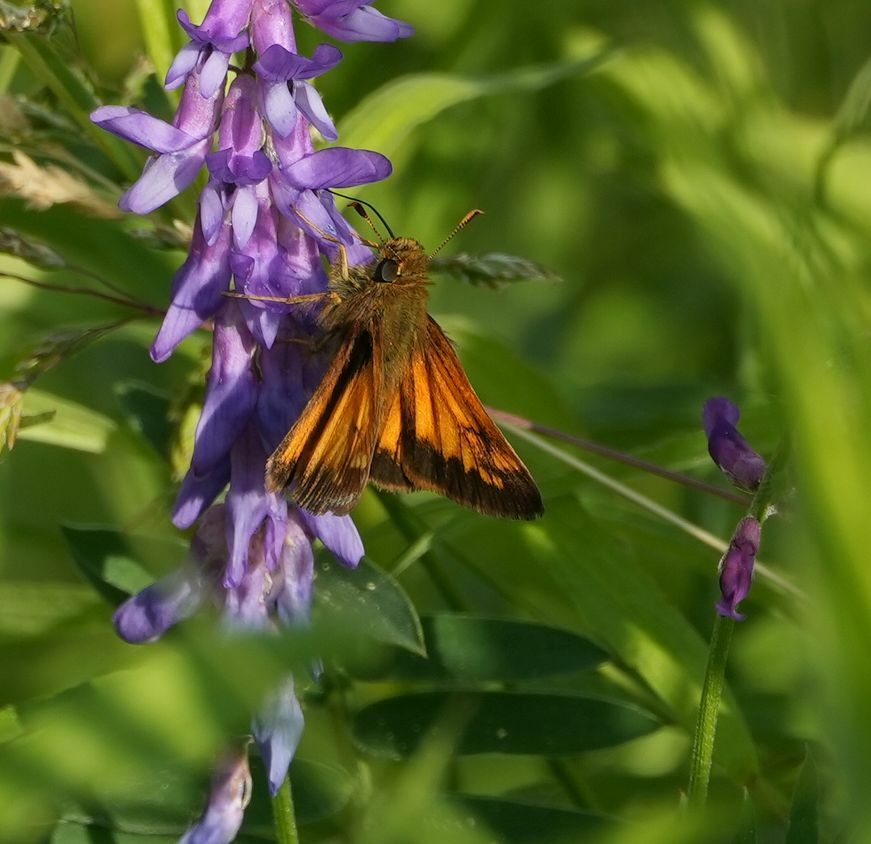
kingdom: Animalia
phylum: Arthropoda
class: Insecta
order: Lepidoptera
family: Hesperiidae
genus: Lon
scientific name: Lon hobomok
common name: Hobomok skipper
